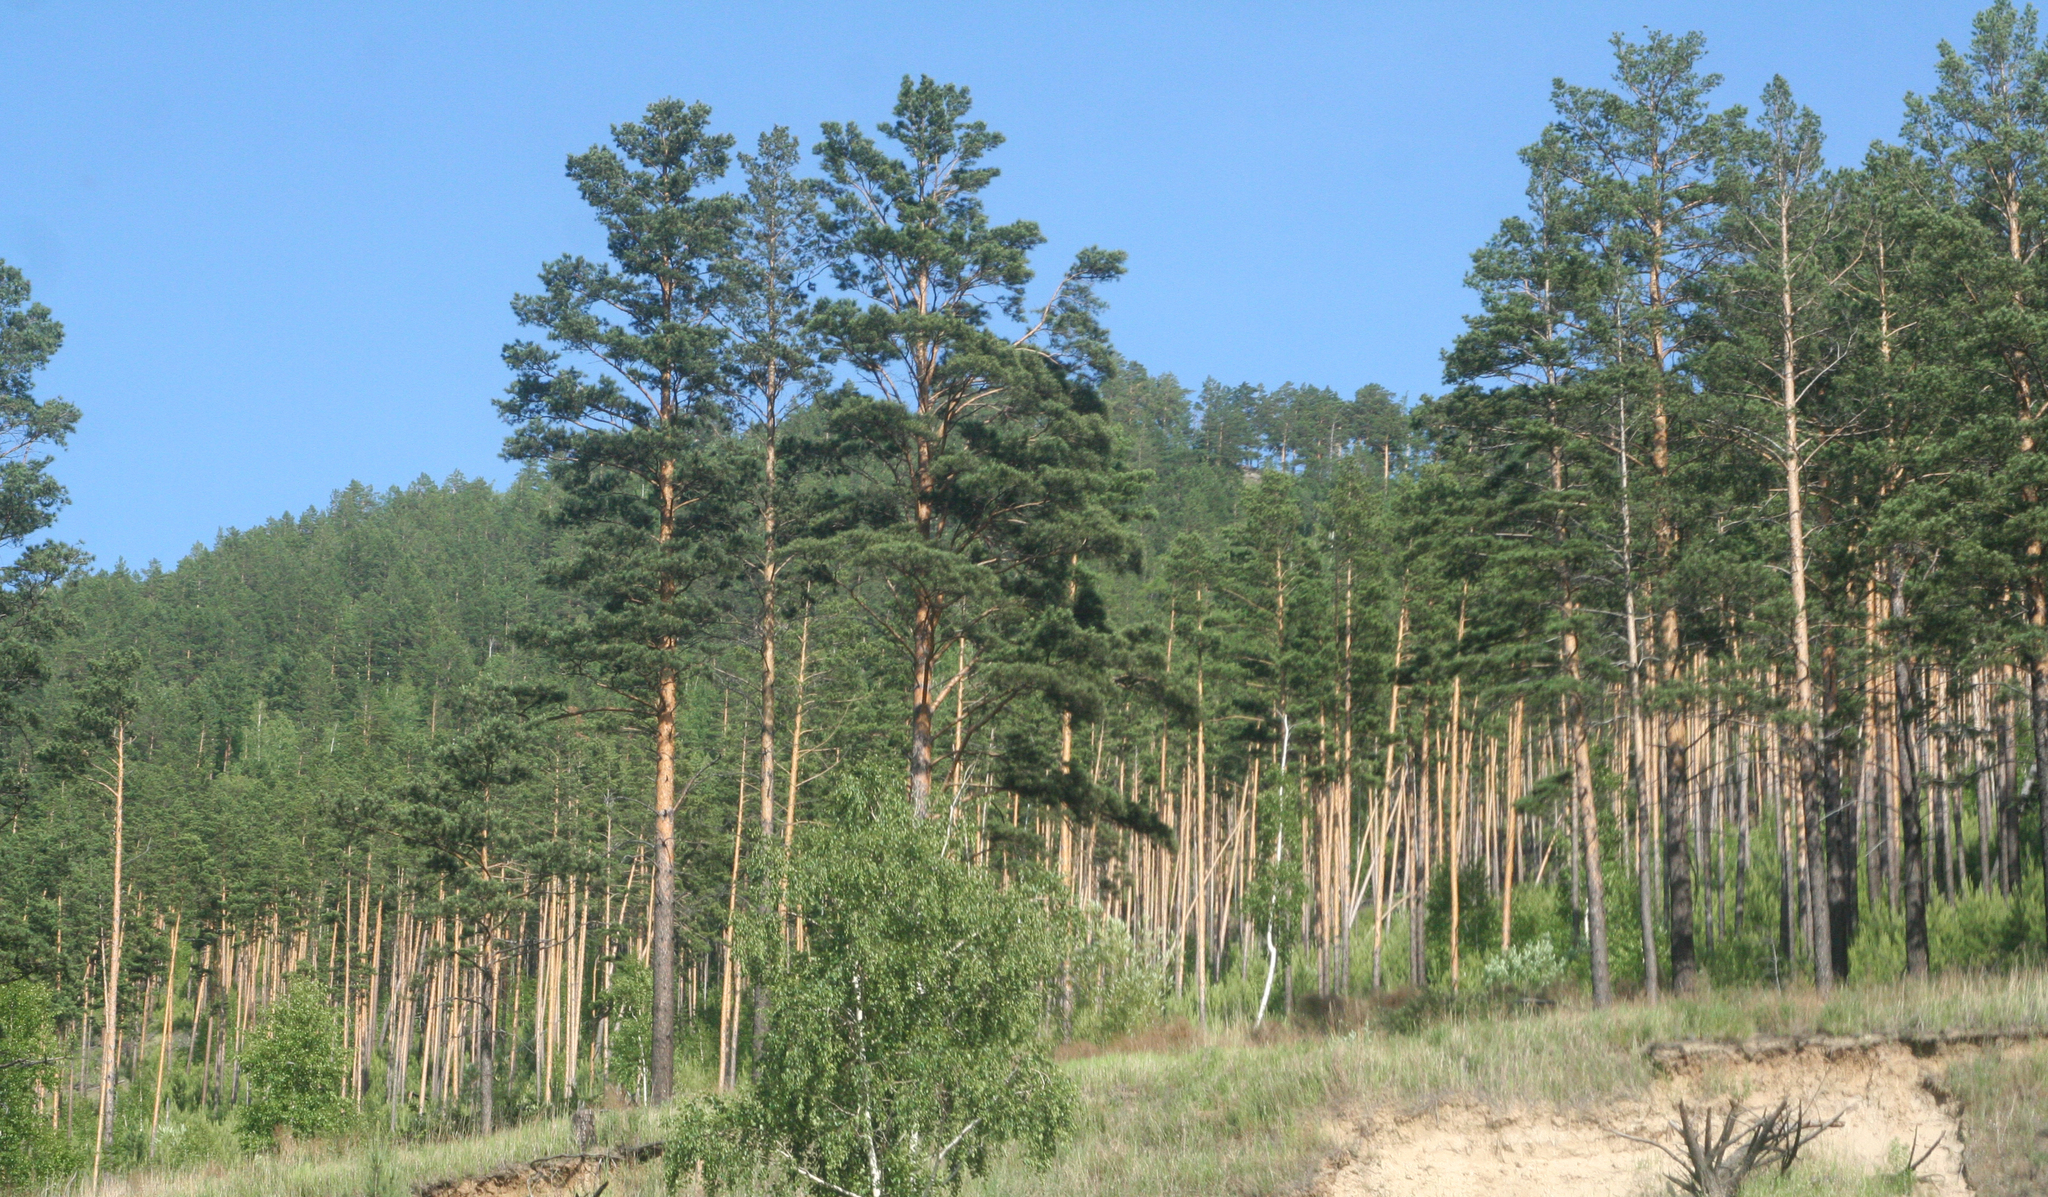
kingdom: Plantae
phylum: Tracheophyta
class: Pinopsida
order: Pinales
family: Pinaceae
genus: Pinus
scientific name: Pinus sylvestris
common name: Scots pine
